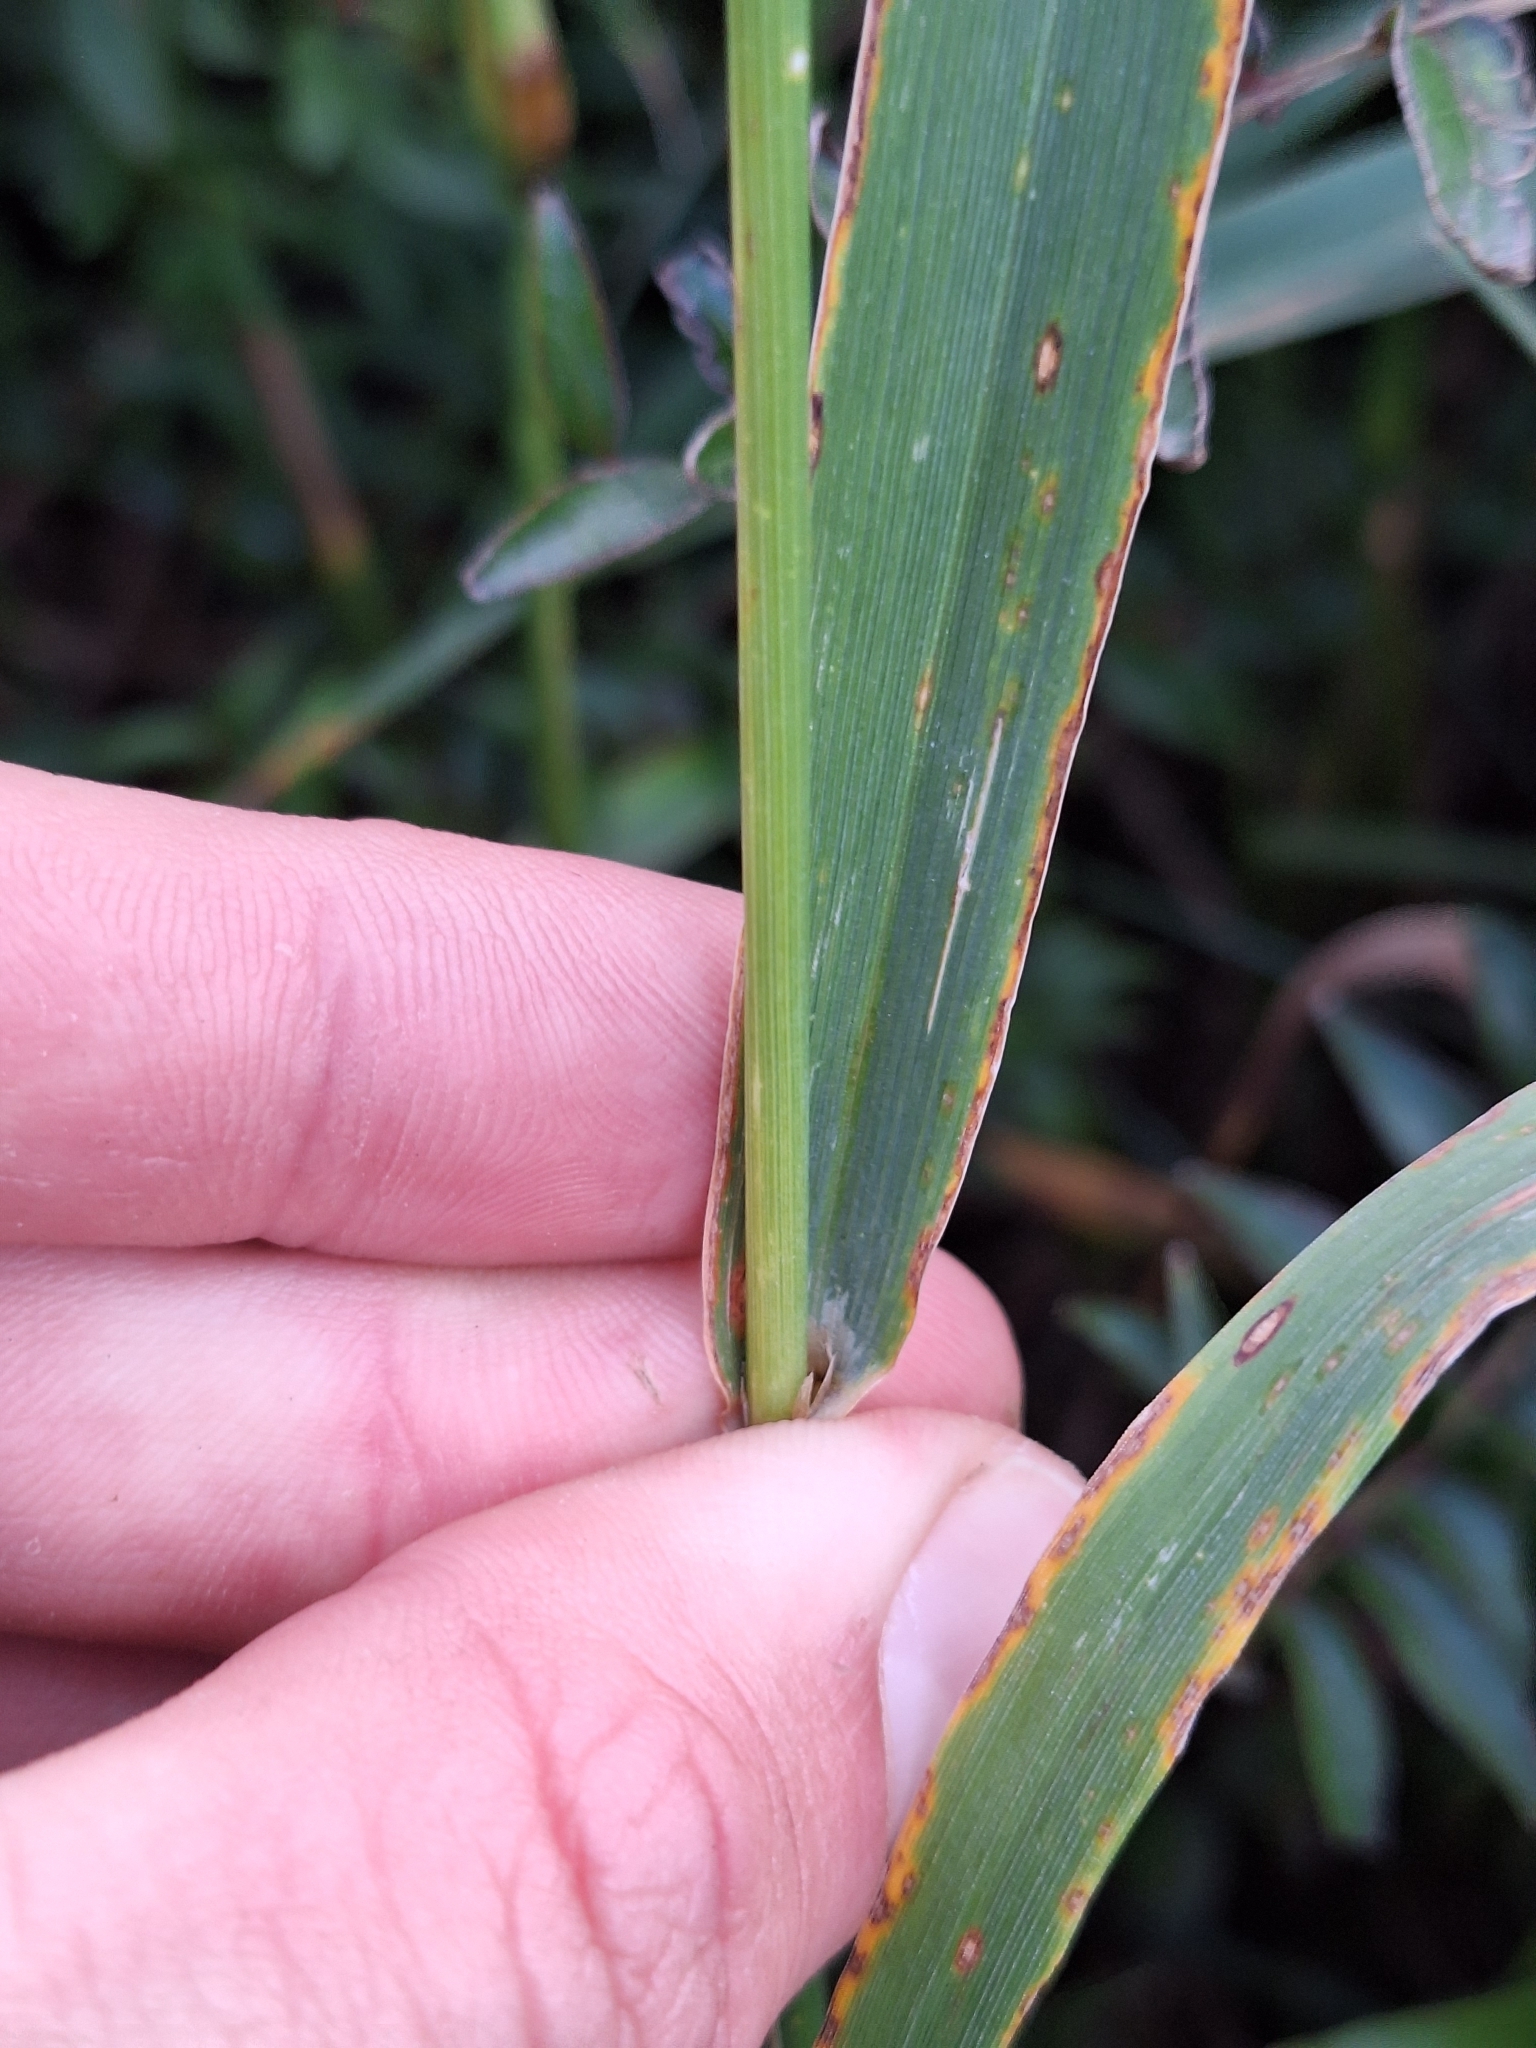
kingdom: Plantae
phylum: Tracheophyta
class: Liliopsida
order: Poales
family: Poaceae
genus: Phleum
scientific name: Phleum pratense
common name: Timothy grass
